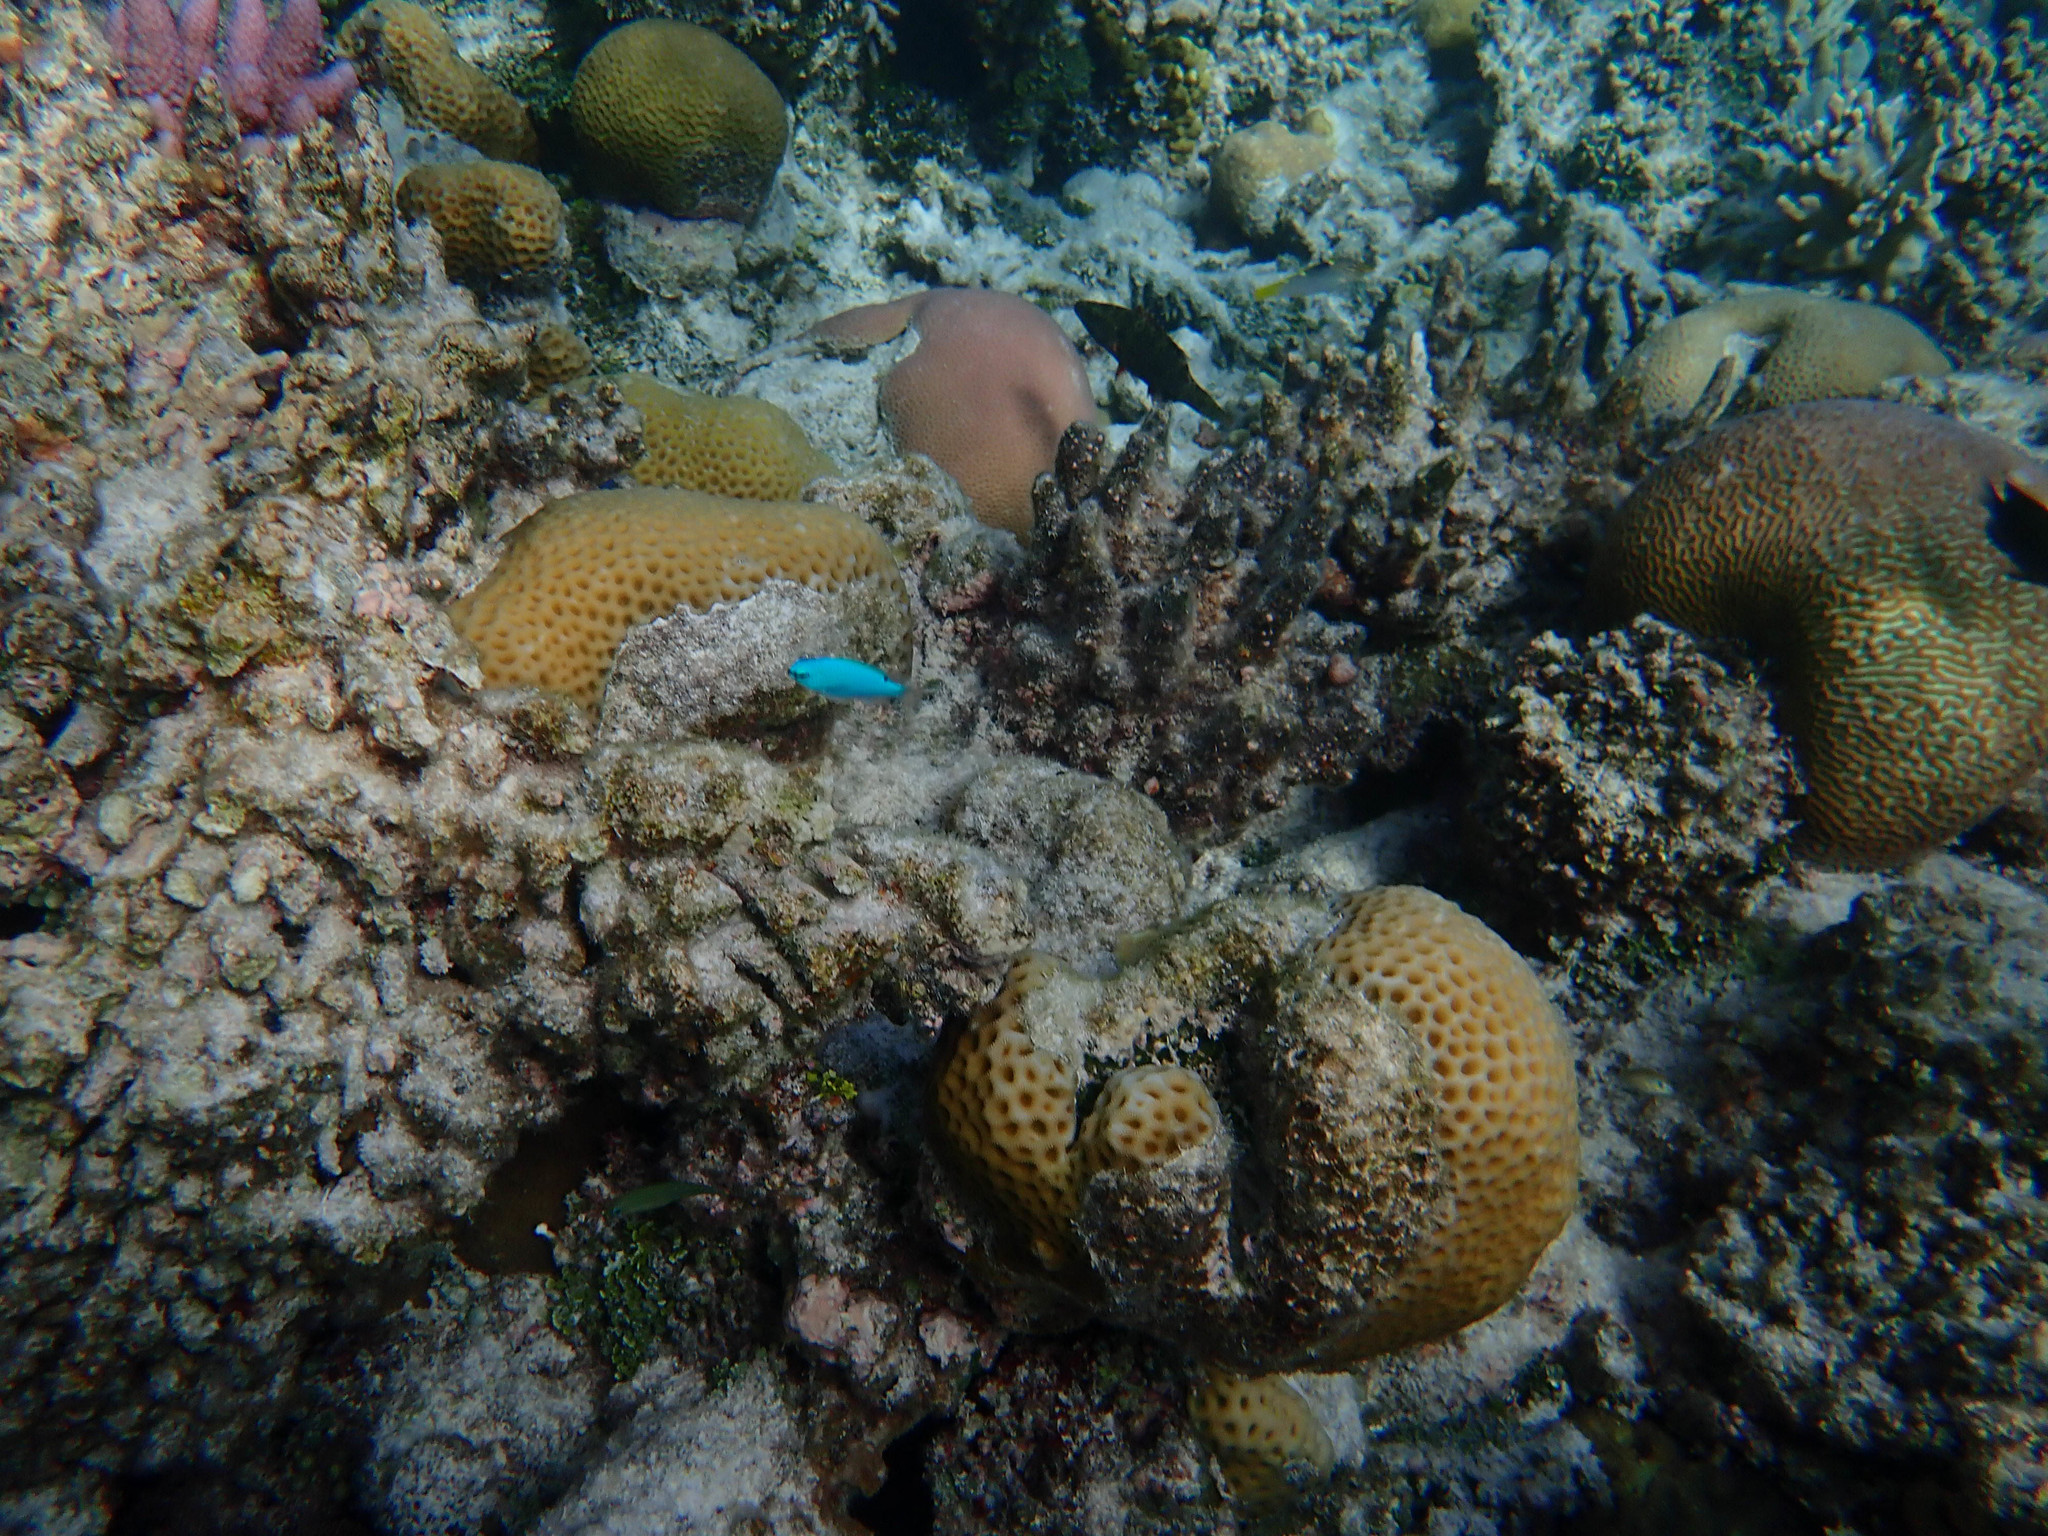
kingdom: Animalia
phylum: Chordata
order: Perciformes
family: Pomacentridae
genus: Chrysiptera
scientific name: Chrysiptera cyanea
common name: Blue devil
